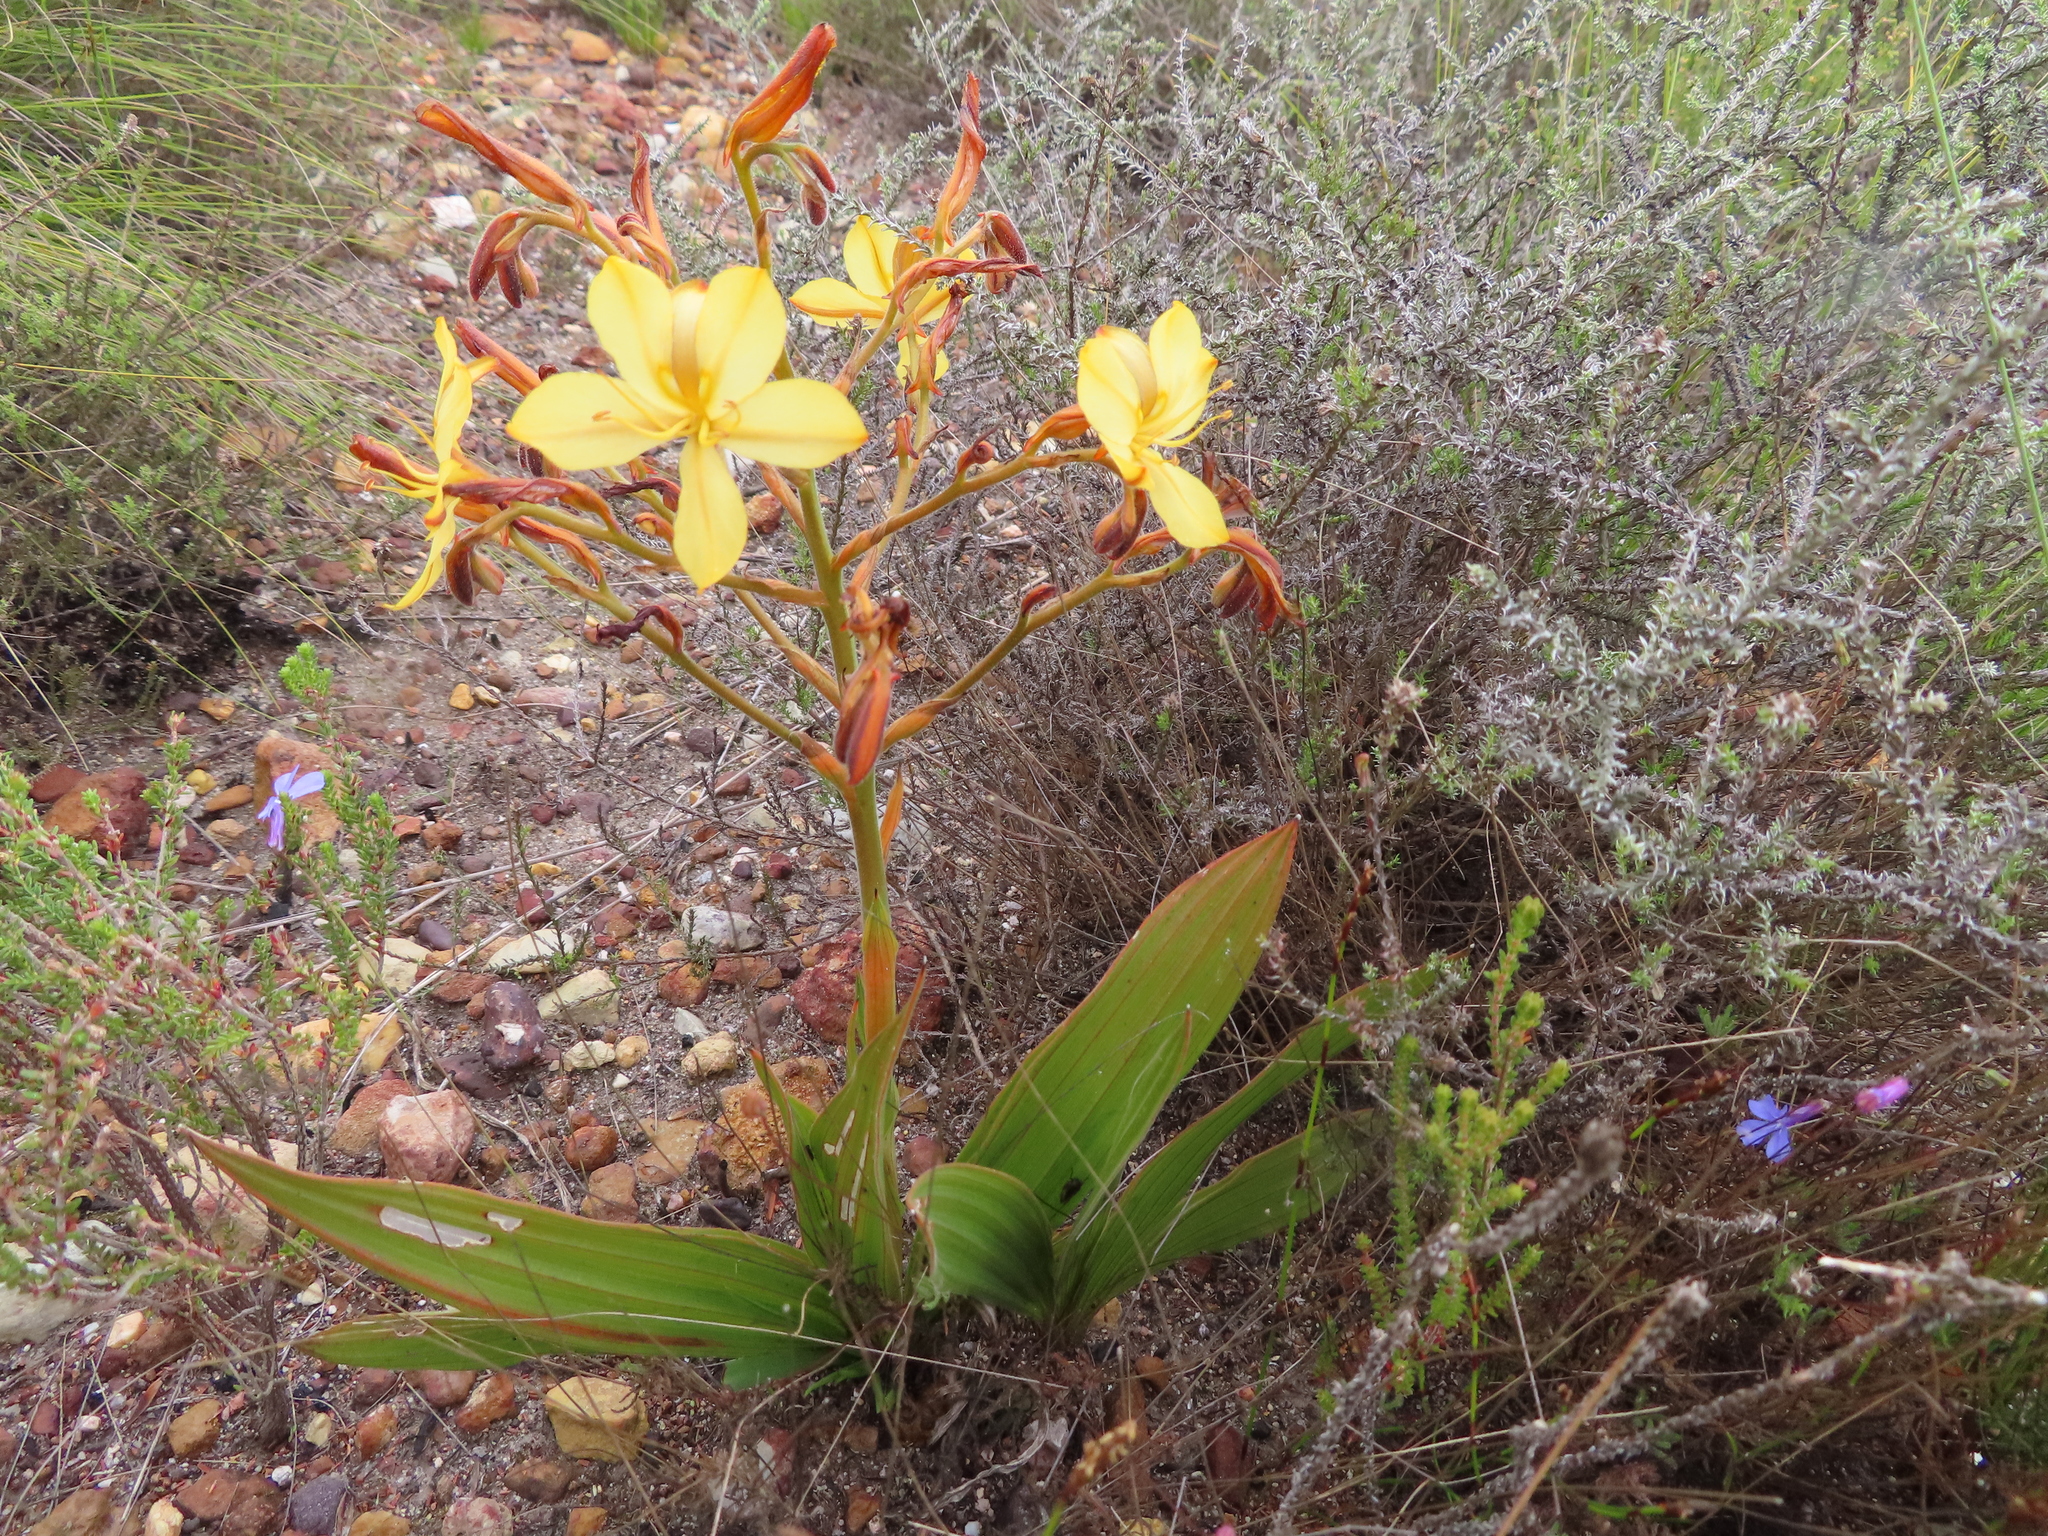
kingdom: Plantae
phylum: Tracheophyta
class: Liliopsida
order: Commelinales
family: Haemodoraceae
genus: Wachendorfia
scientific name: Wachendorfia paniculata
